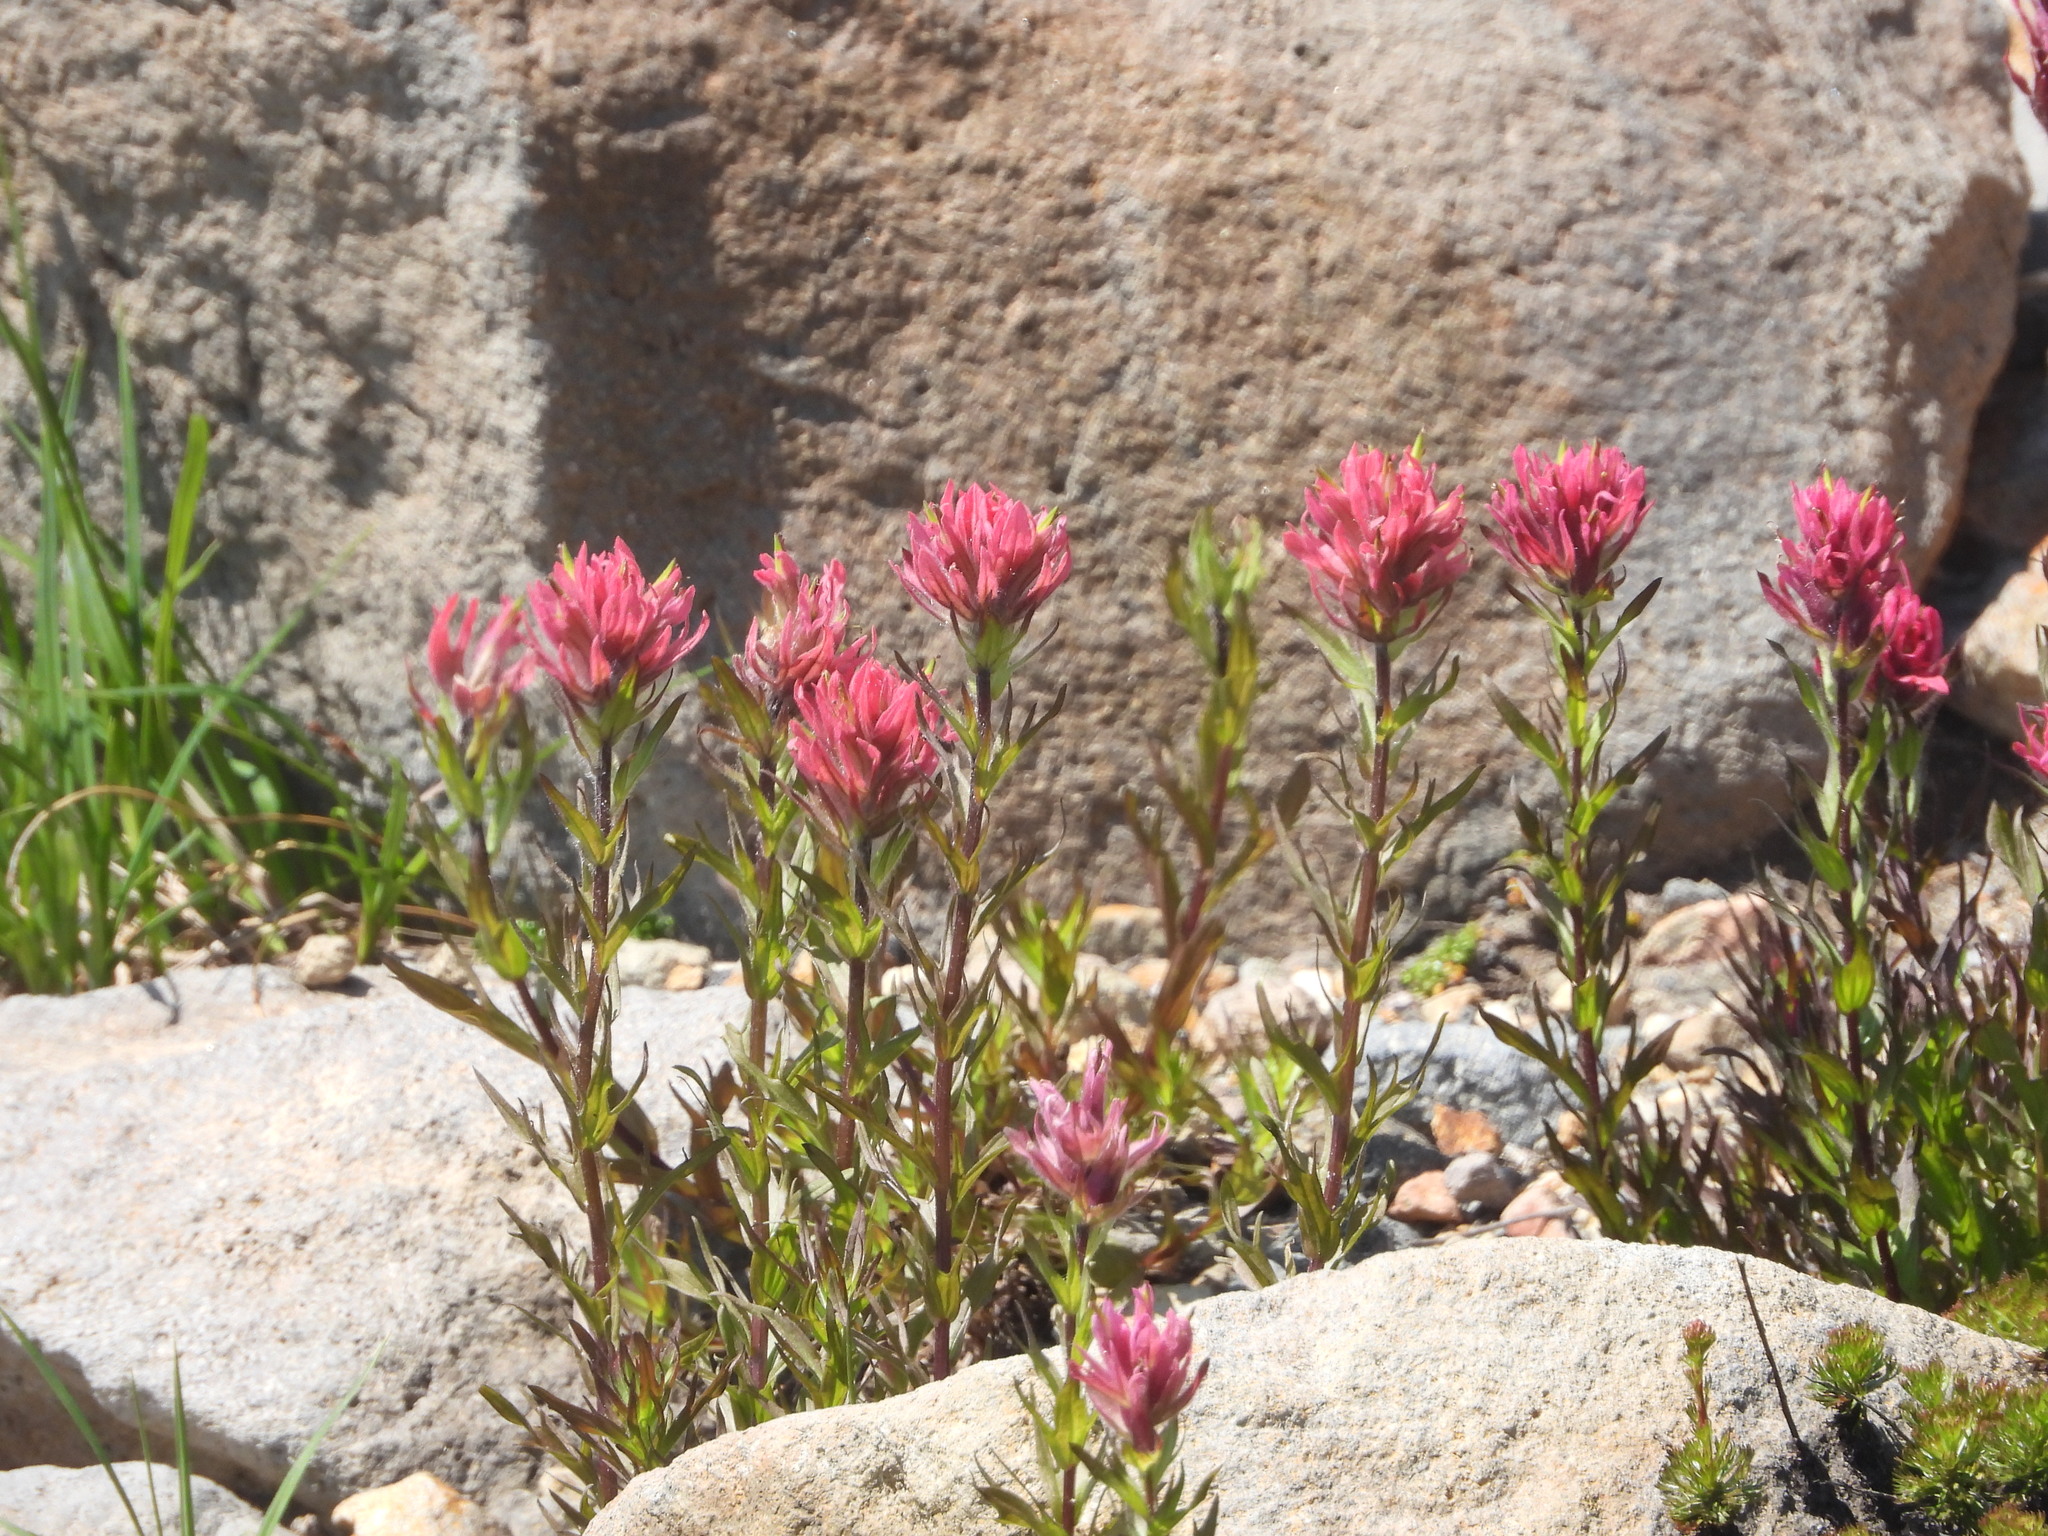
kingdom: Plantae
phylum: Tracheophyta
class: Magnoliopsida
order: Lamiales
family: Orobanchaceae
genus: Castilleja
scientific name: Castilleja parviflora
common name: Mountain paintbrush
